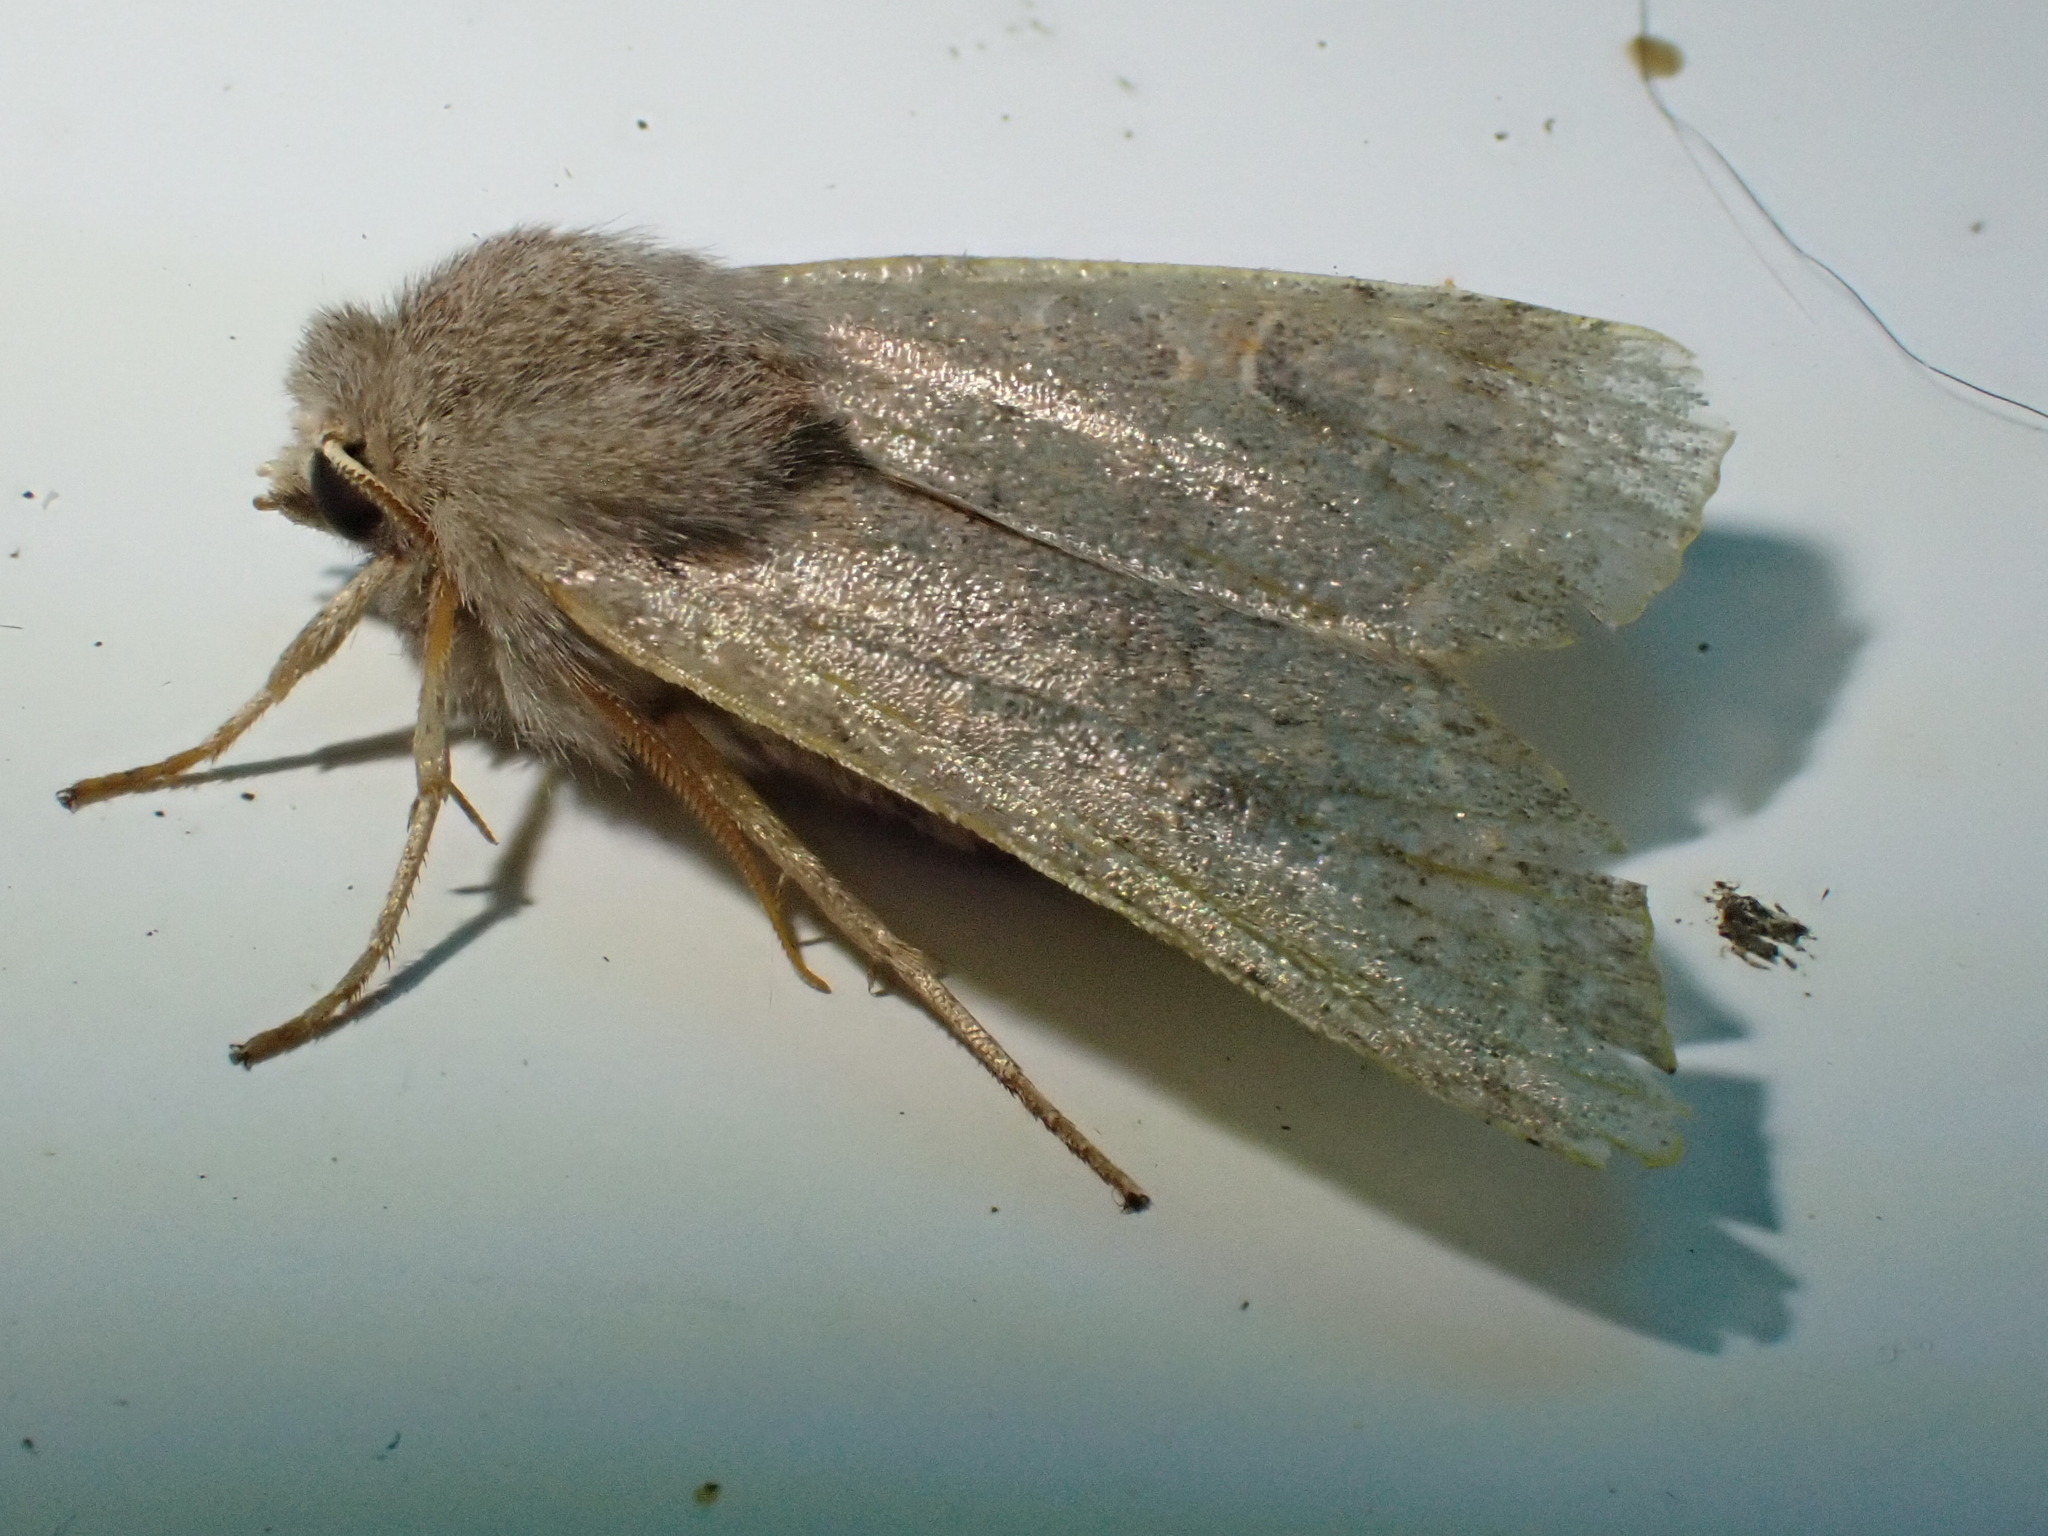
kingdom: Animalia
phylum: Arthropoda
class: Insecta
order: Lepidoptera
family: Noctuidae
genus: Orthosia
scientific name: Orthosia cerasi
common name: Common quaker
